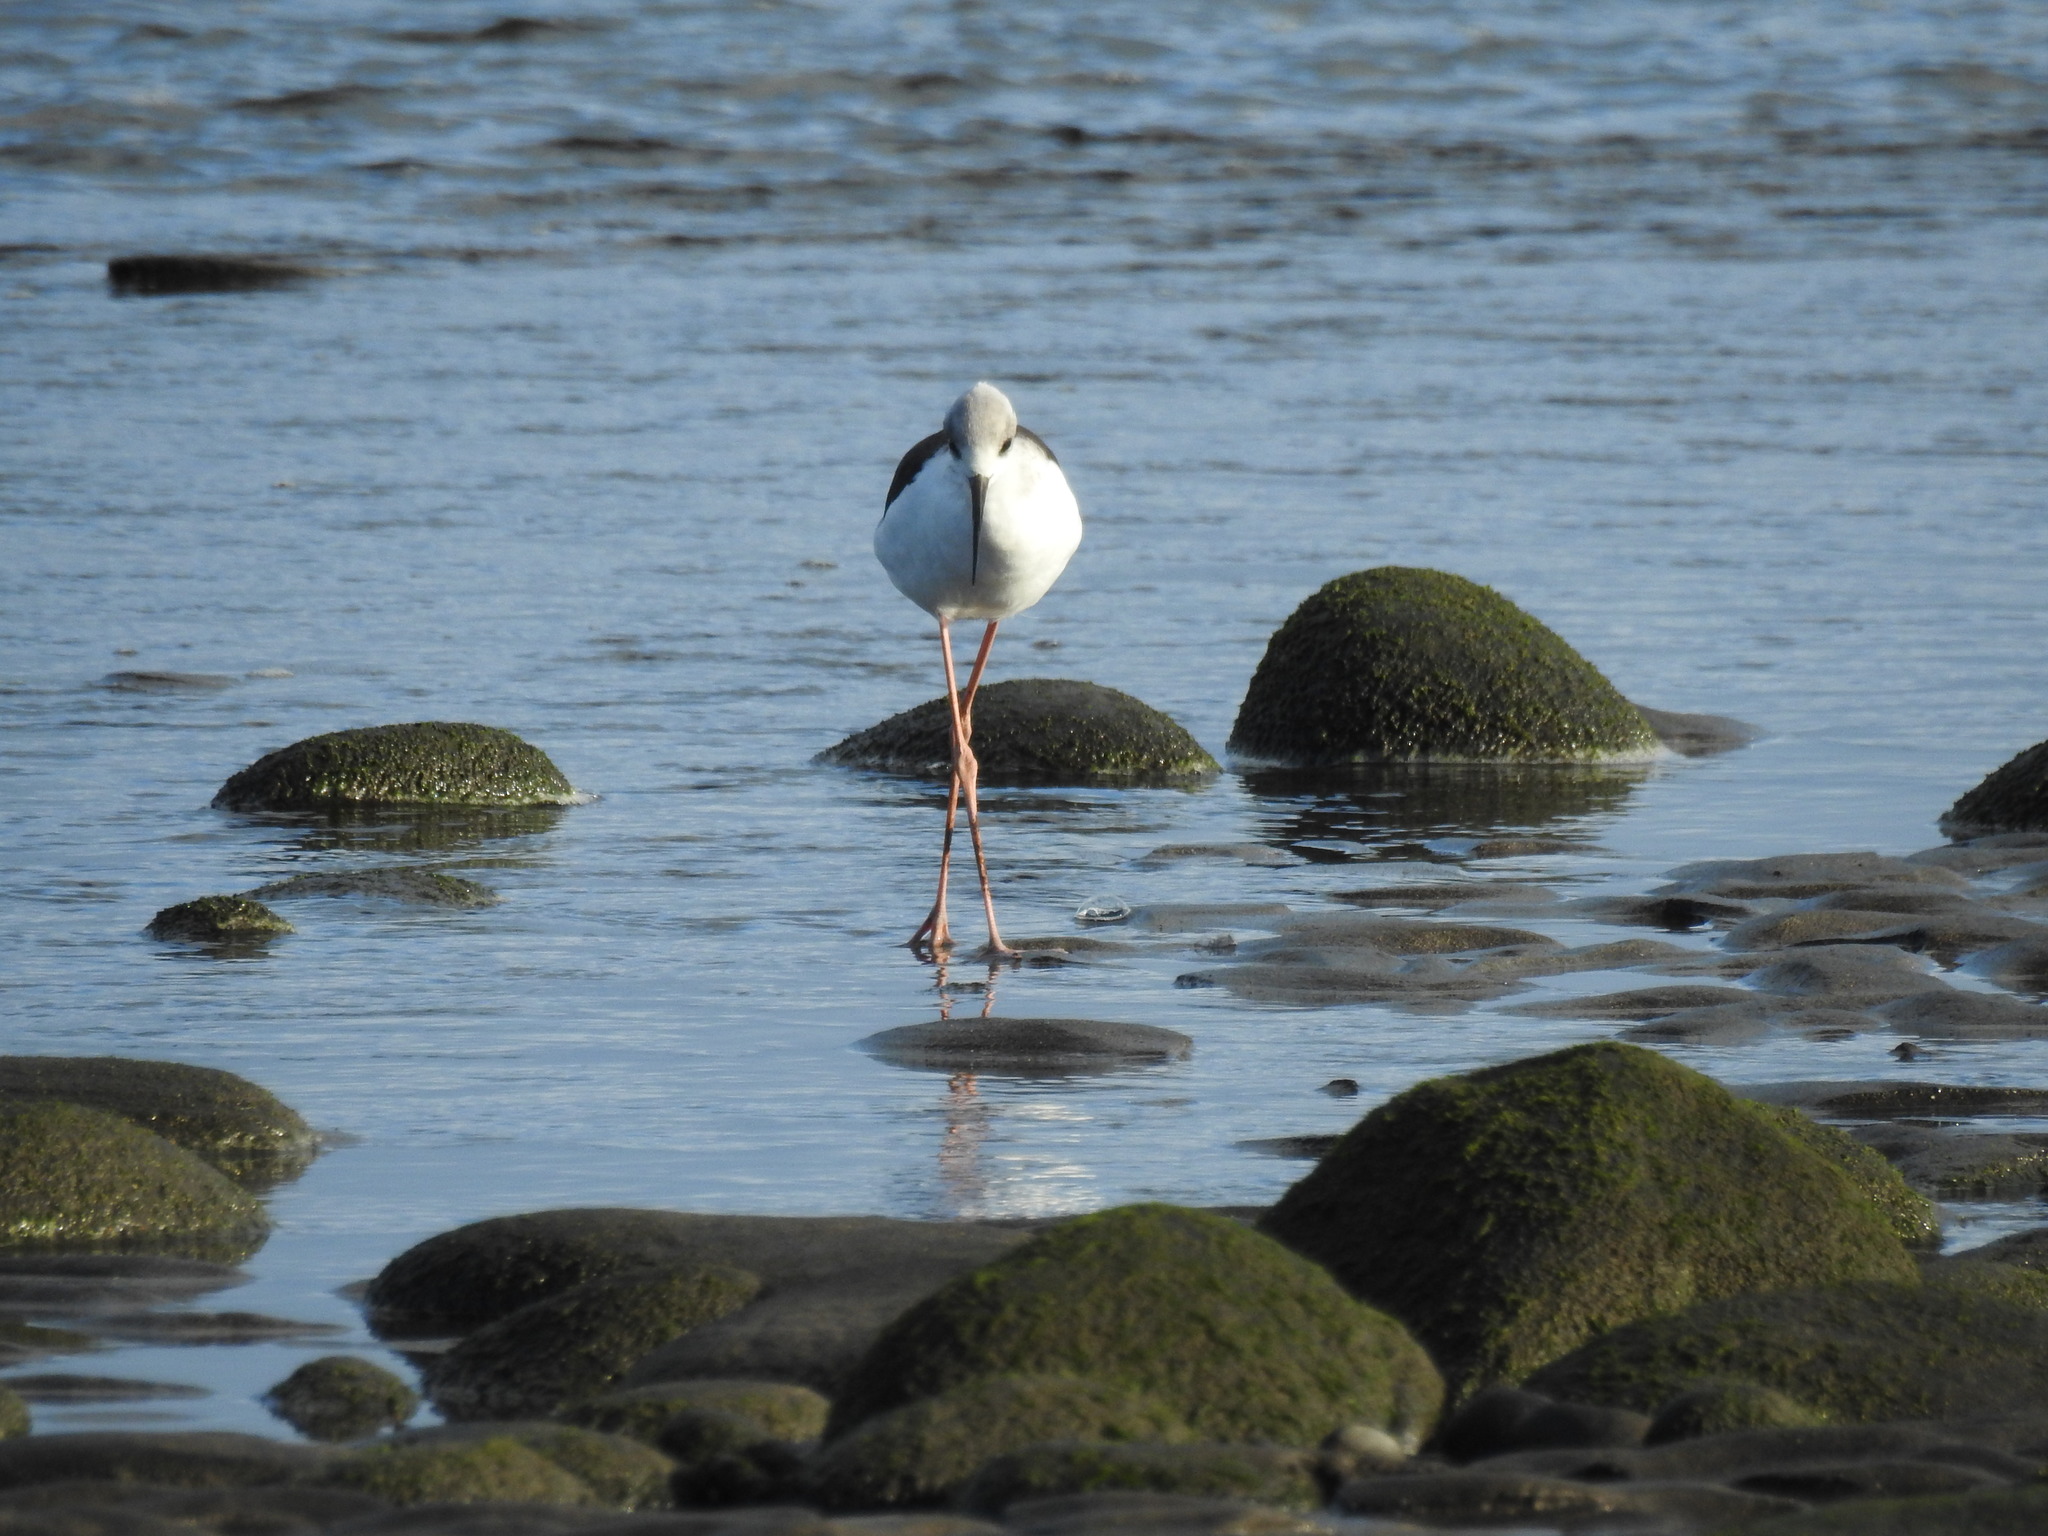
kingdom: Animalia
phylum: Chordata
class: Aves
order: Charadriiformes
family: Recurvirostridae
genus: Himantopus
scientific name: Himantopus leucocephalus
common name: White-headed stilt
